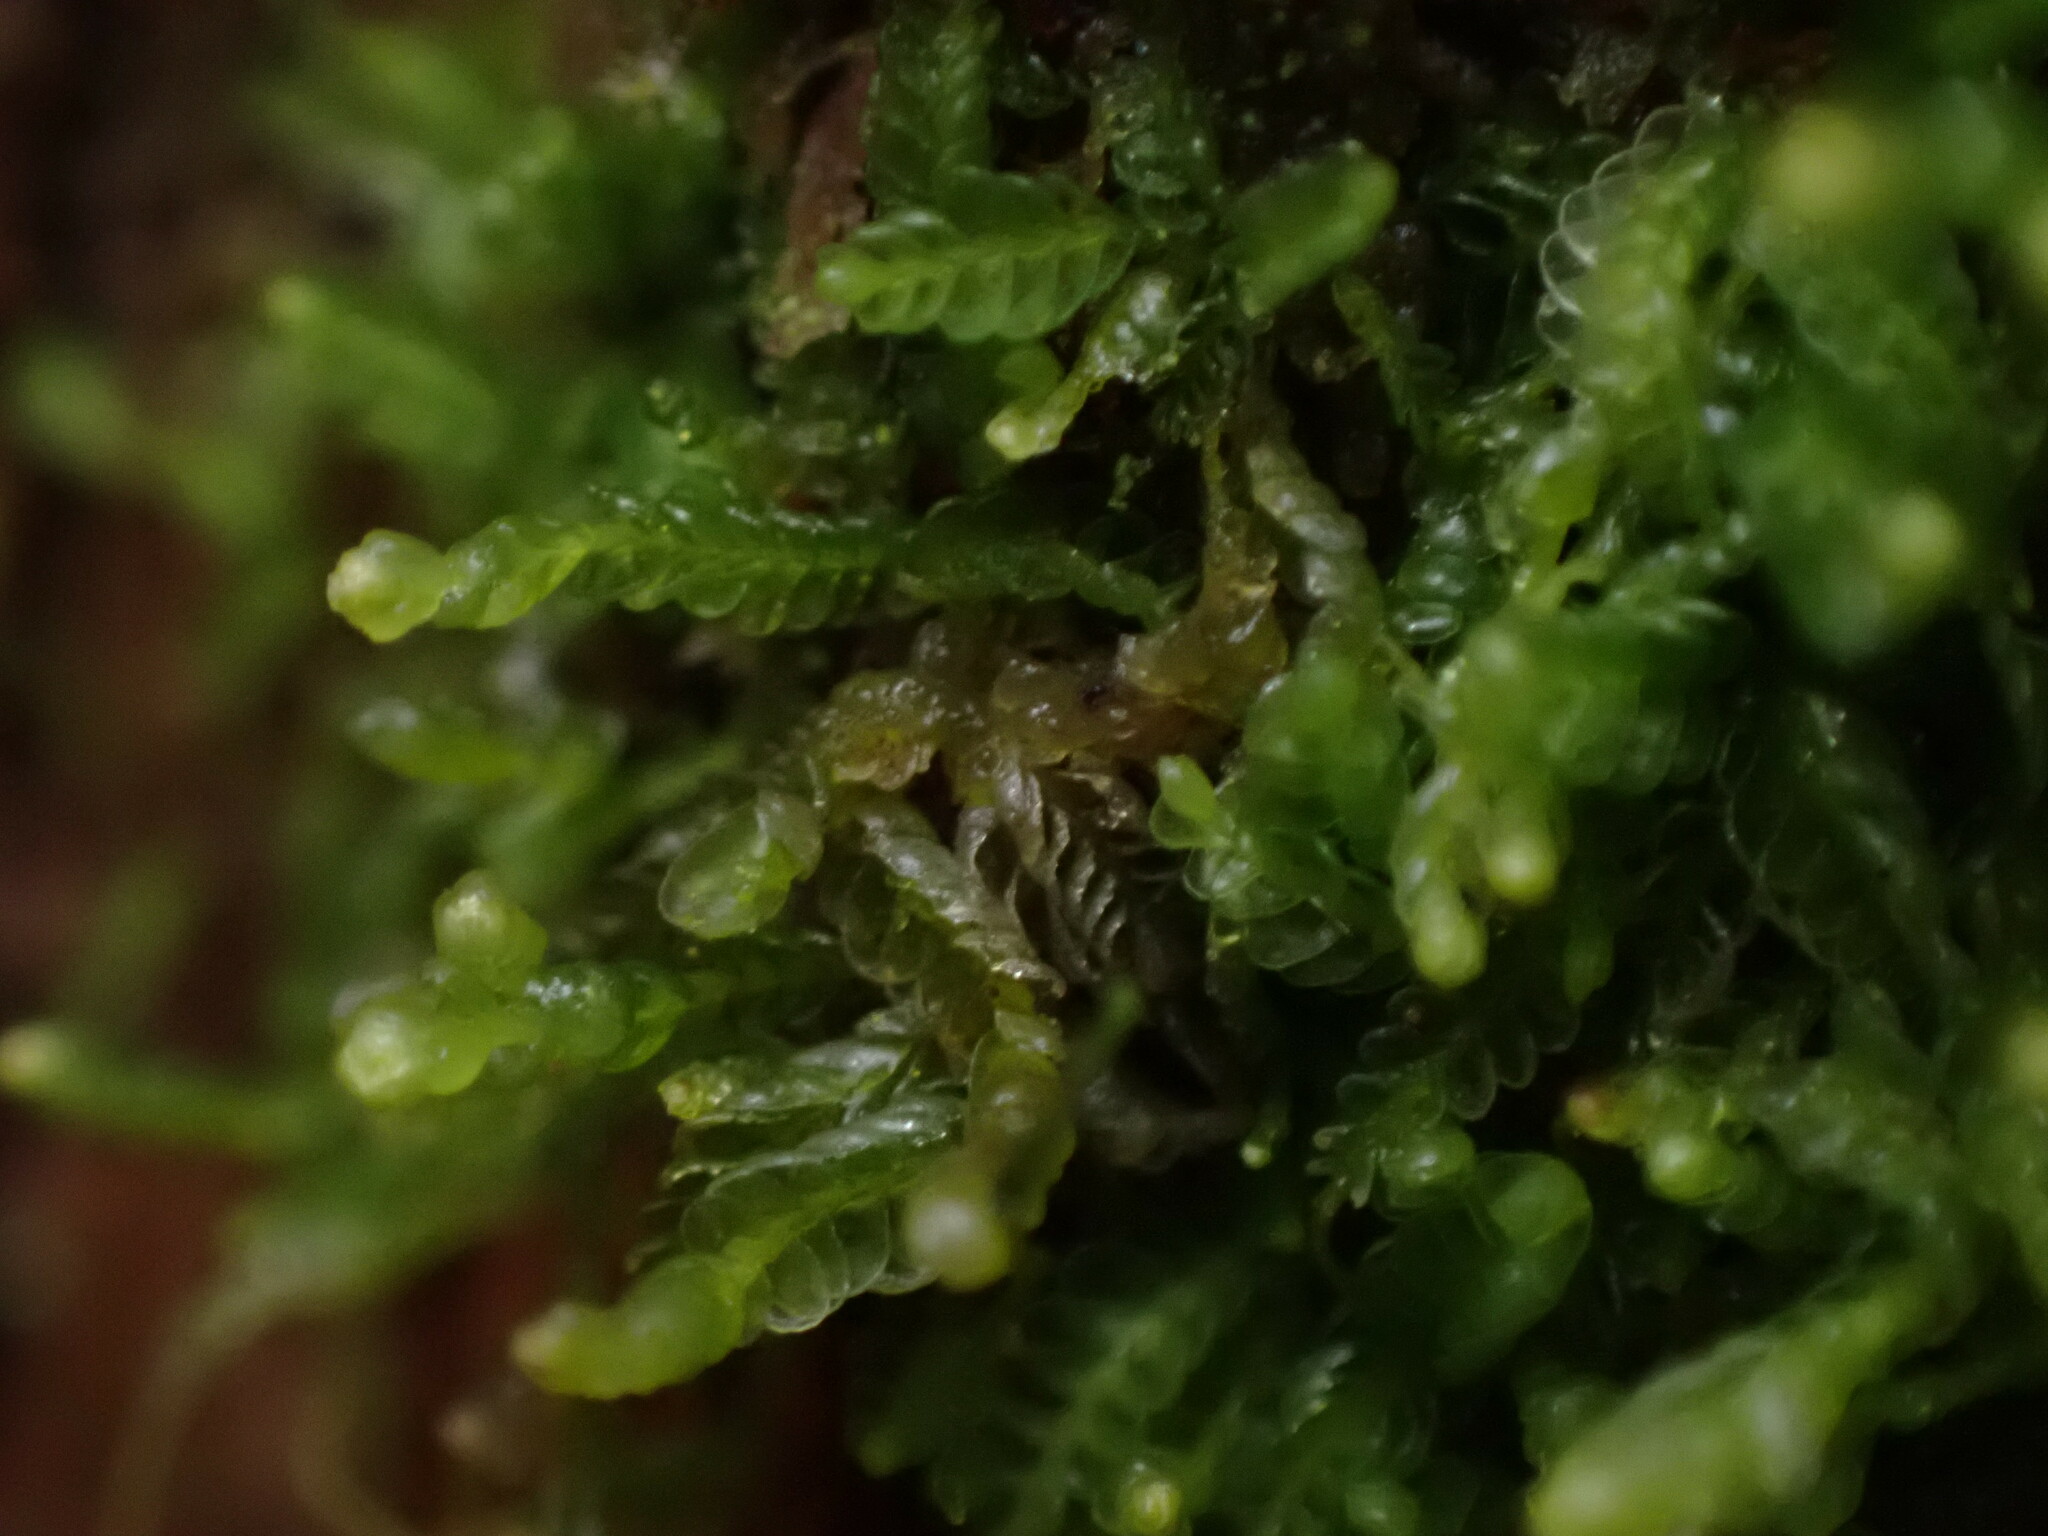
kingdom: Plantae
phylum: Marchantiophyta
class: Jungermanniopsida
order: Jungermanniales
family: Cephaloziaceae
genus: Odontoschisma
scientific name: Odontoschisma denudatum
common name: Matchstick flapwort
